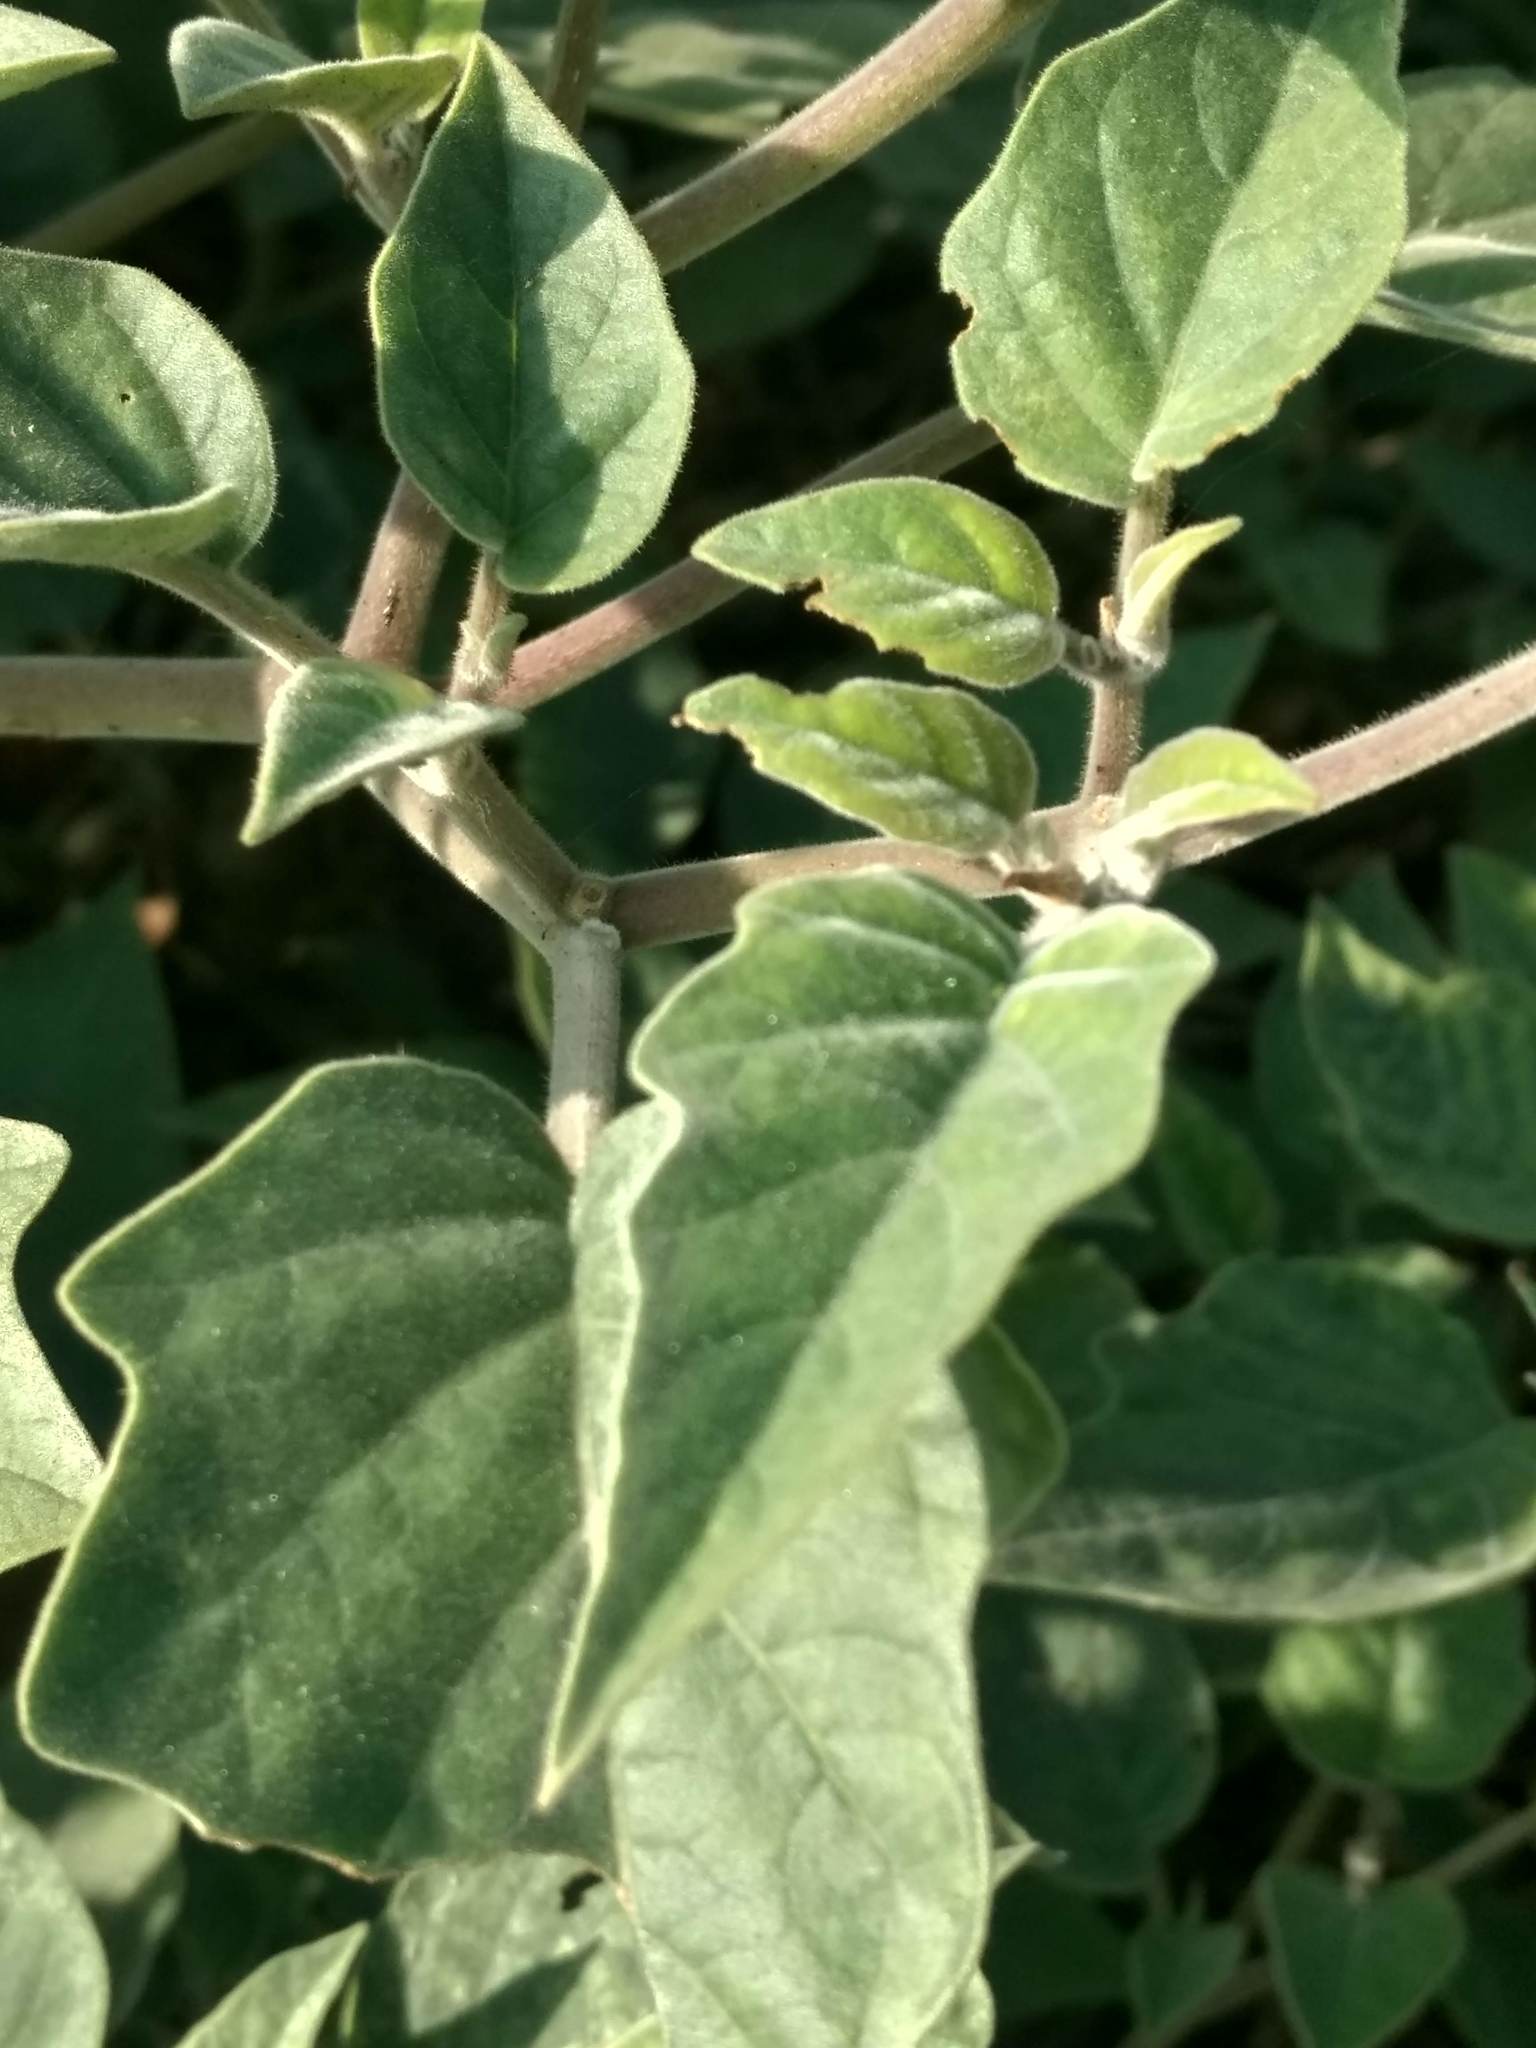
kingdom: Plantae
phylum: Tracheophyta
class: Magnoliopsida
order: Solanales
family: Solanaceae
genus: Datura
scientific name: Datura wrightii
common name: Sacred thorn-apple
